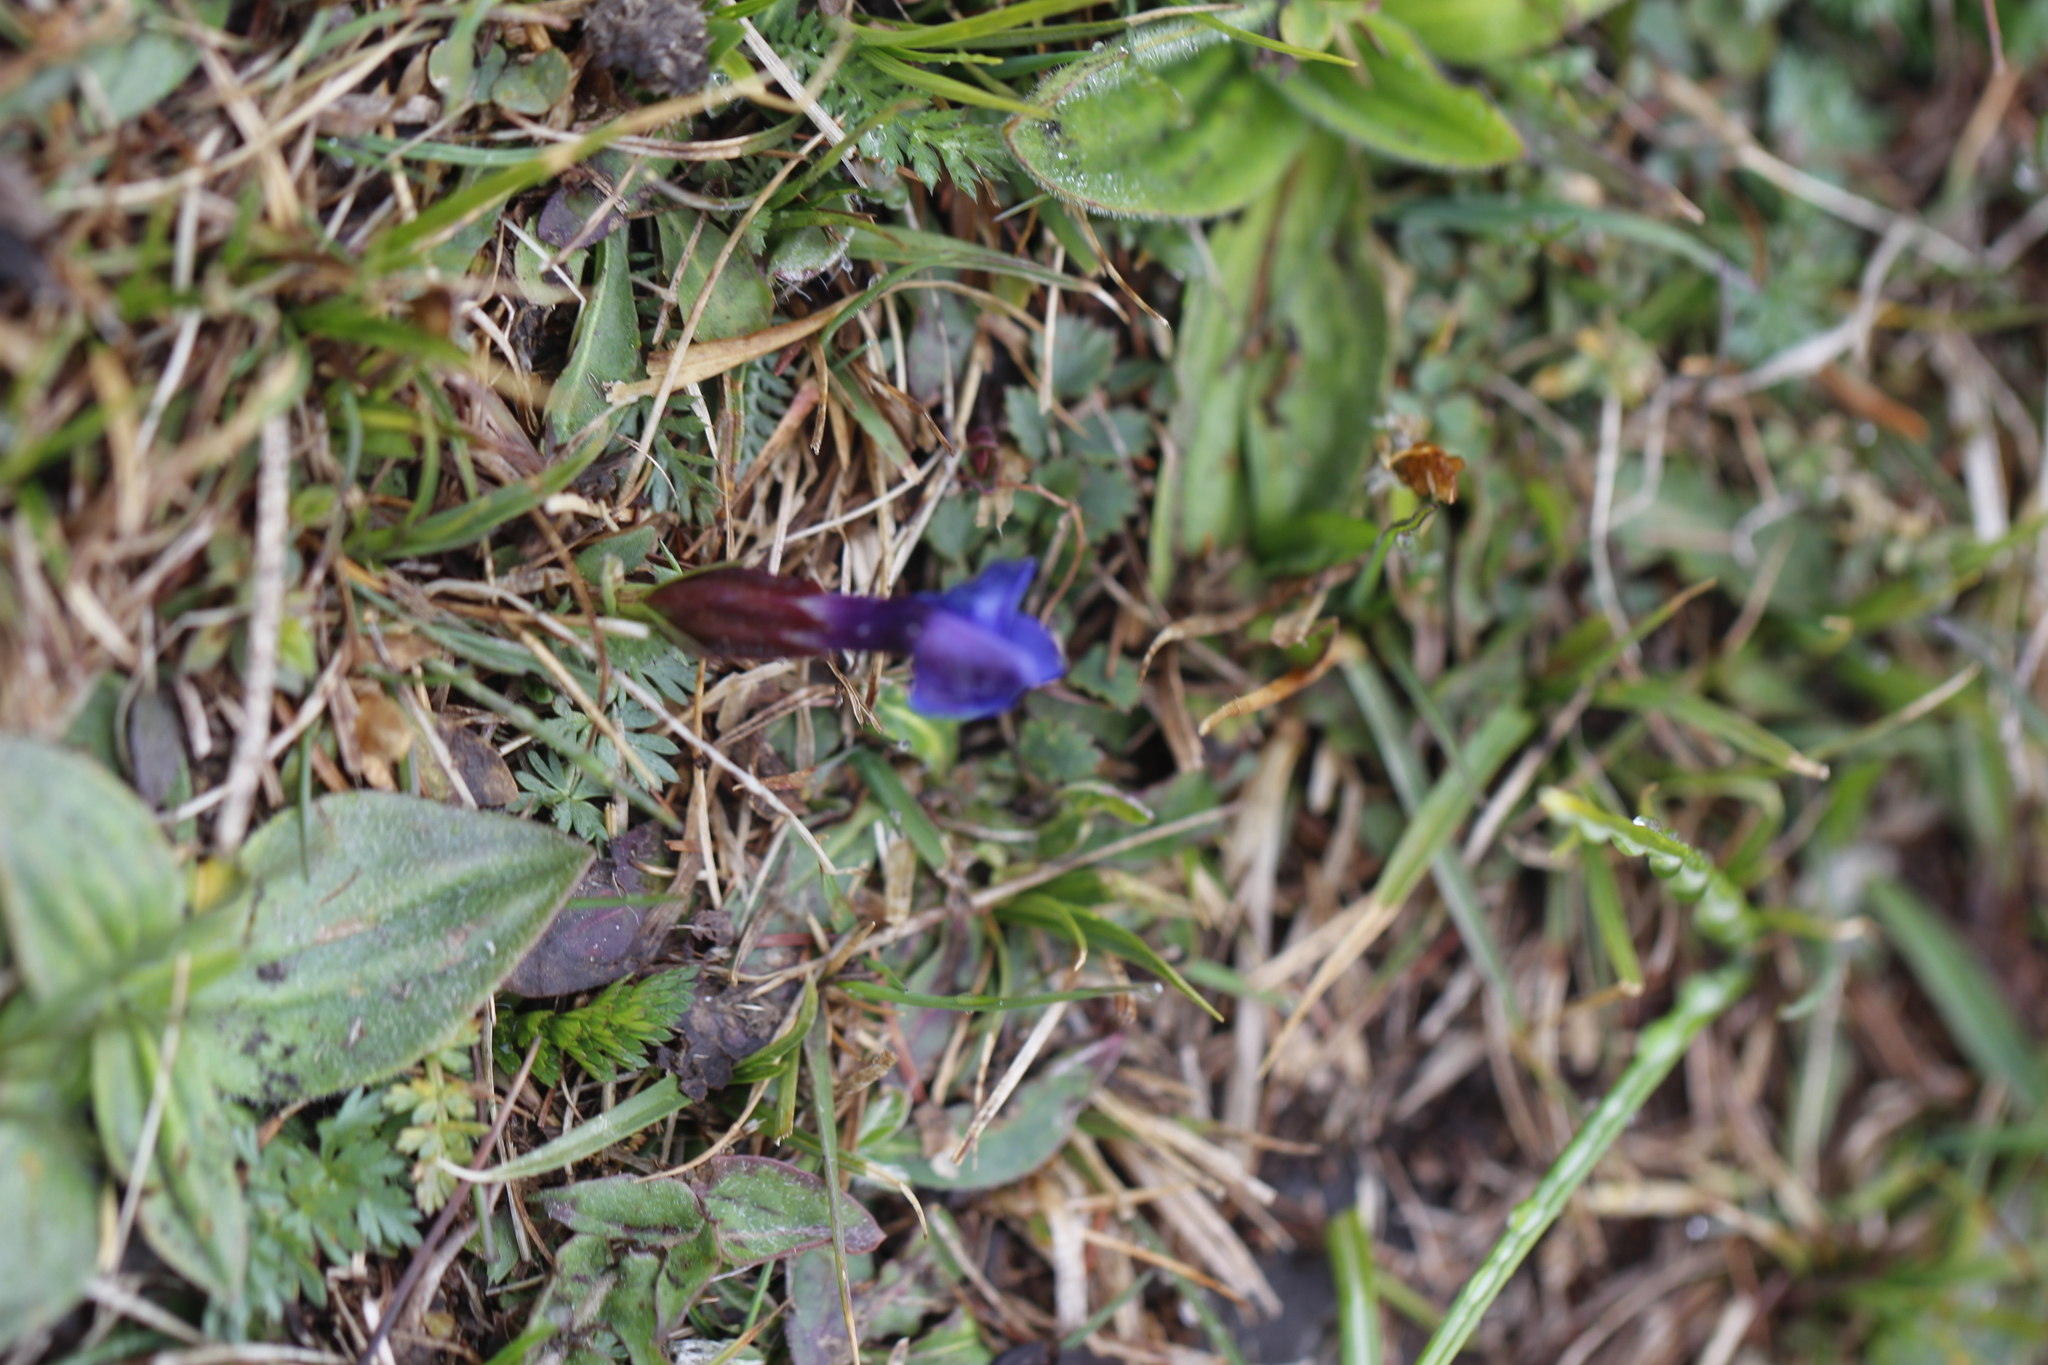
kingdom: Plantae
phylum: Tracheophyta
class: Magnoliopsida
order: Gentianales
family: Gentianaceae
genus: Gentiana
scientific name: Gentiana verna
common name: Spring gentian
